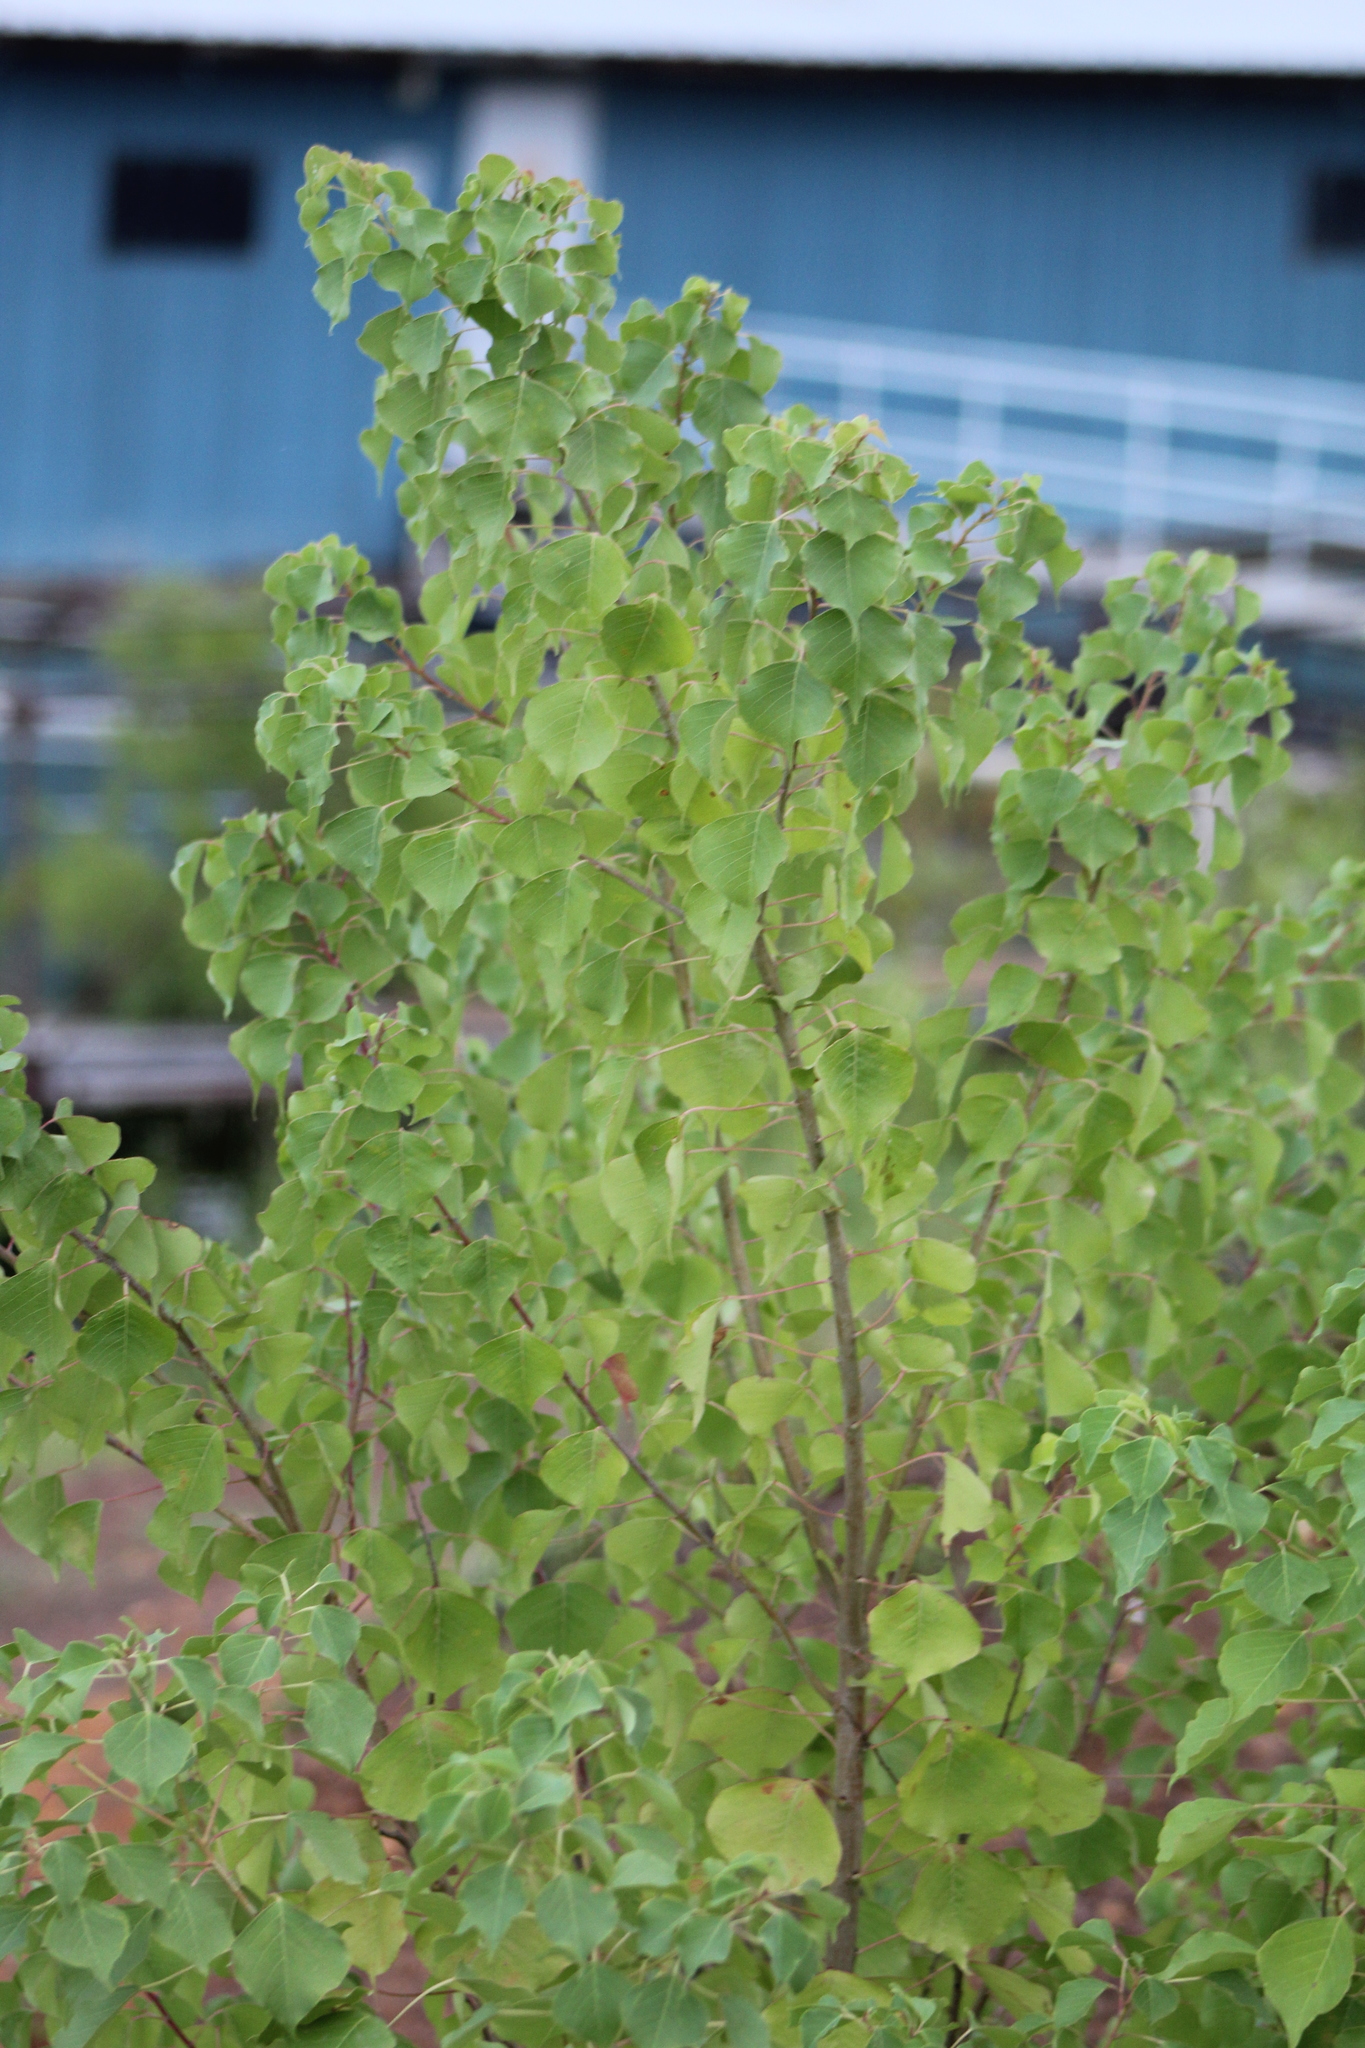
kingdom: Plantae
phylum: Tracheophyta
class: Magnoliopsida
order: Malpighiales
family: Euphorbiaceae
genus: Triadica
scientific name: Triadica sebifera
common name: Chinese tallow
